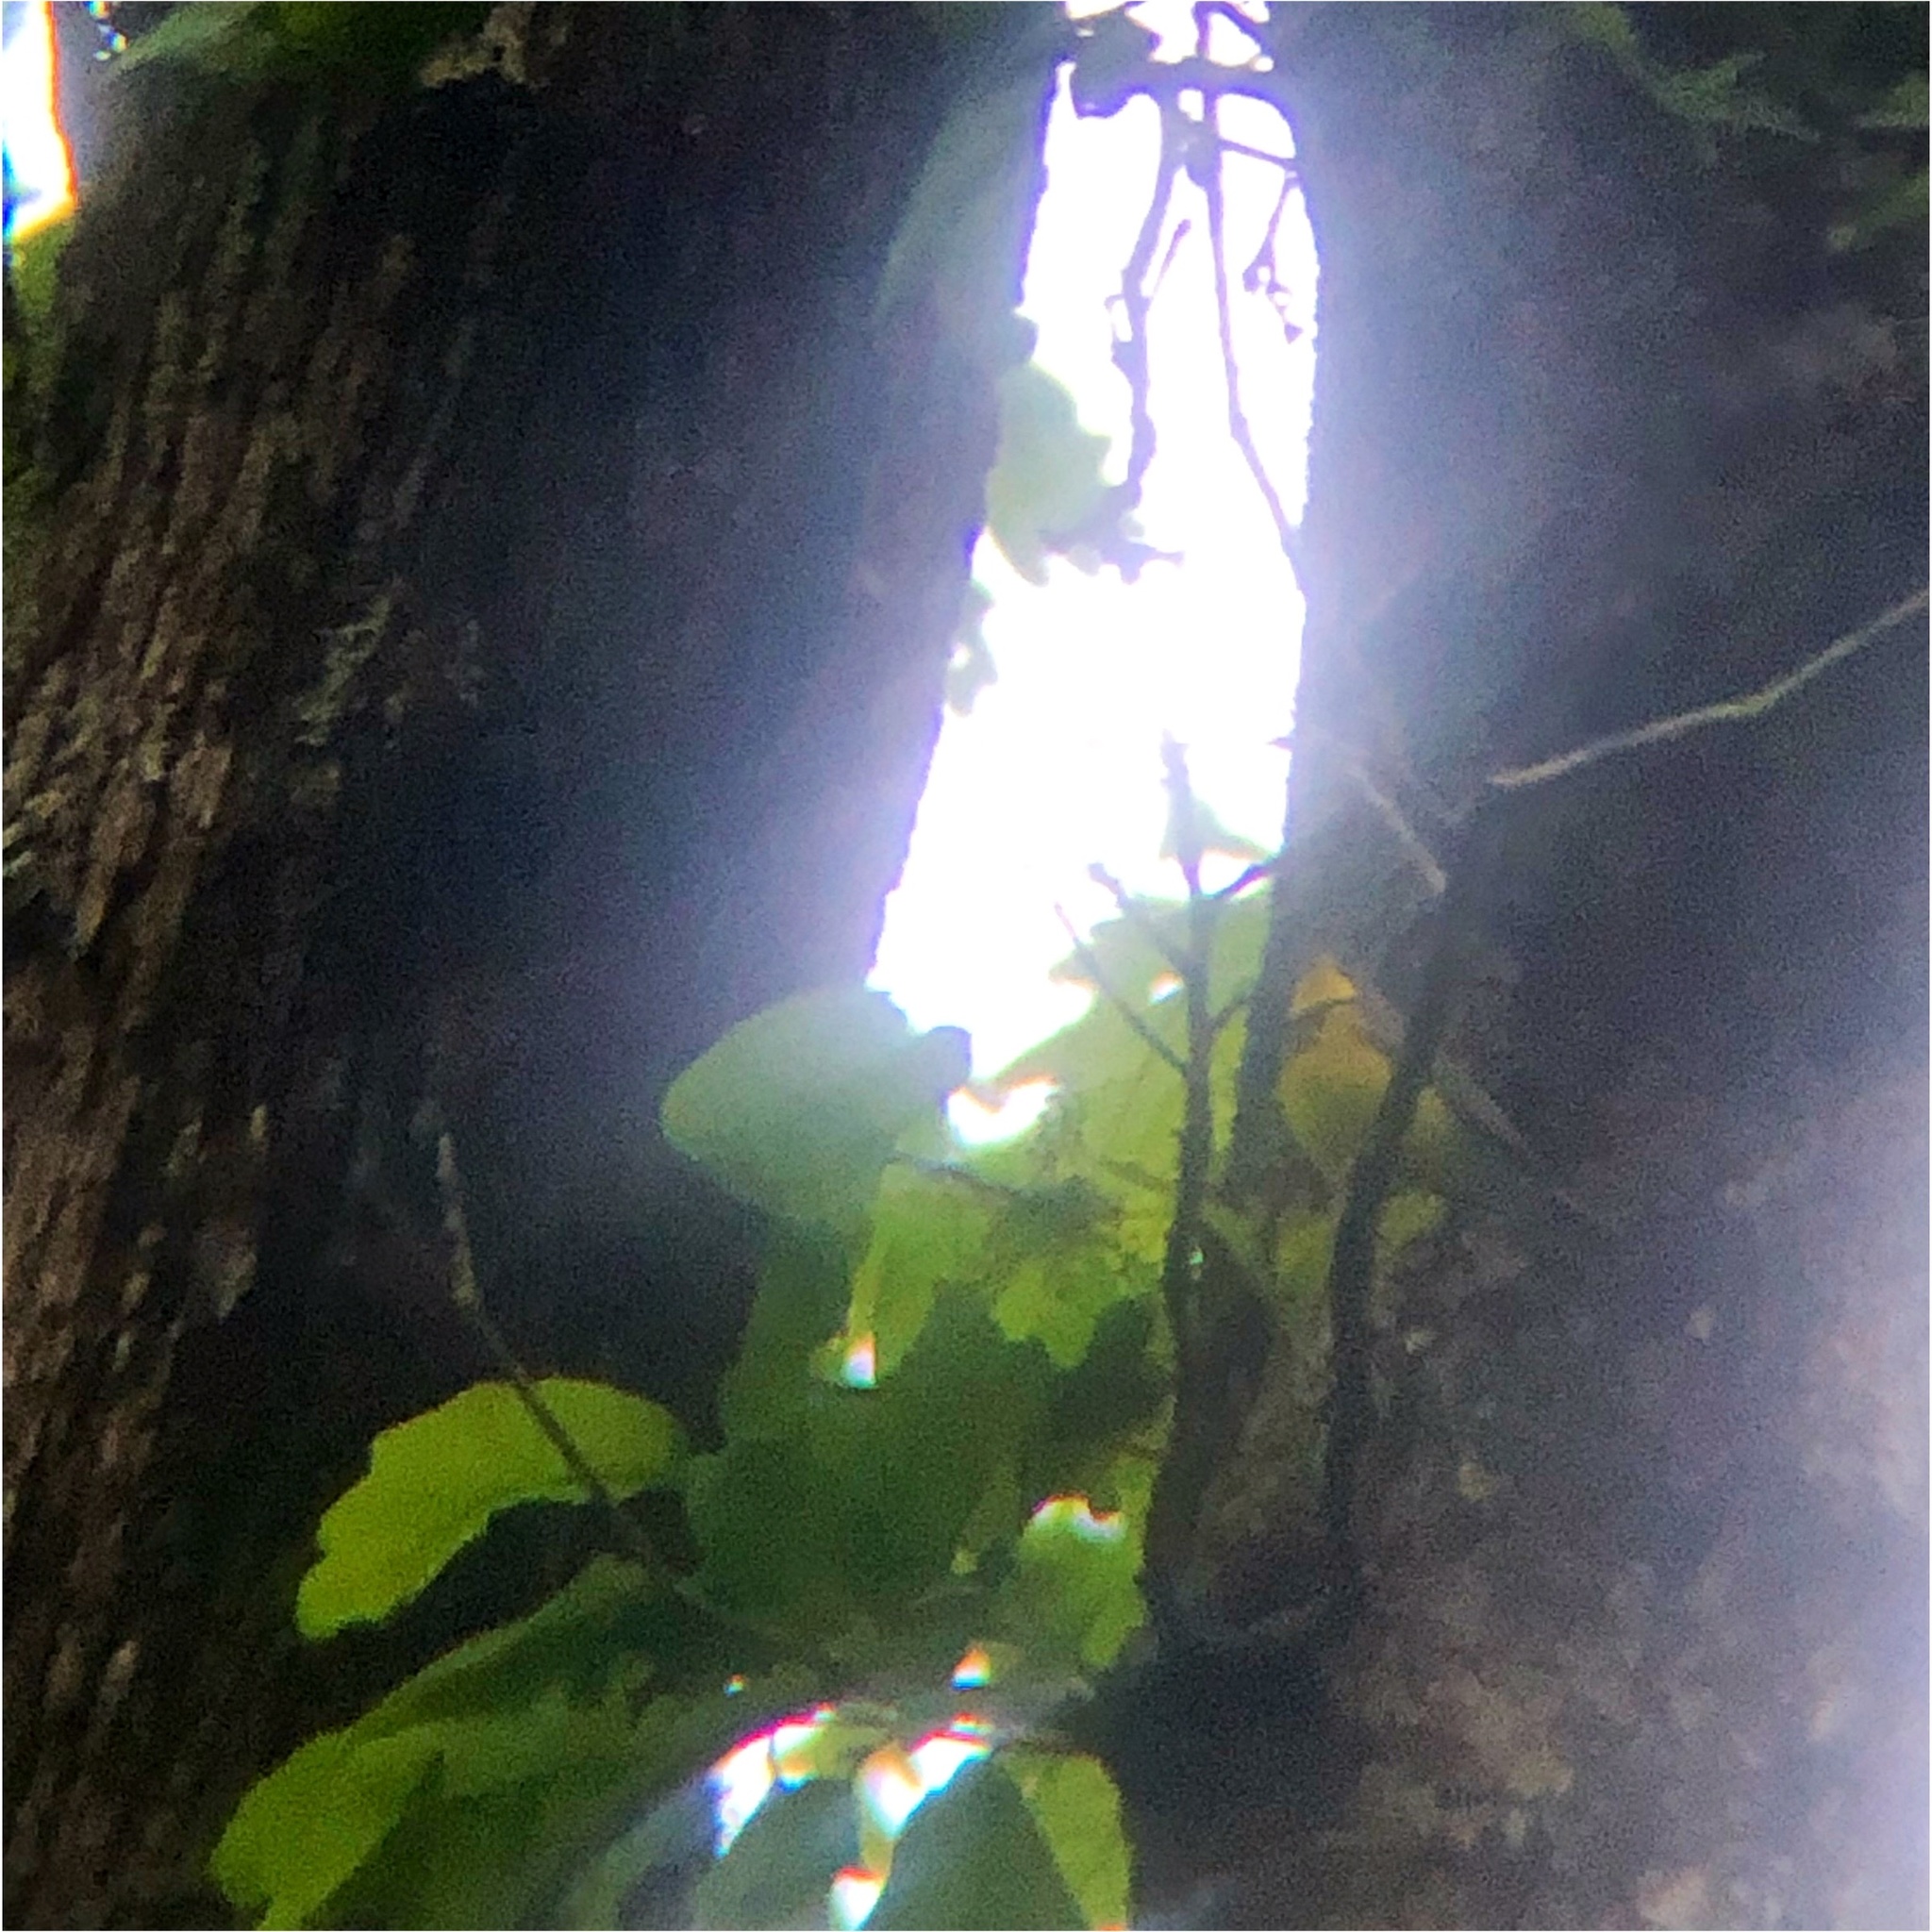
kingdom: Animalia
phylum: Chordata
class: Aves
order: Passeriformes
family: Parulidae
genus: Cardellina
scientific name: Cardellina canadensis
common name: Canada warbler
